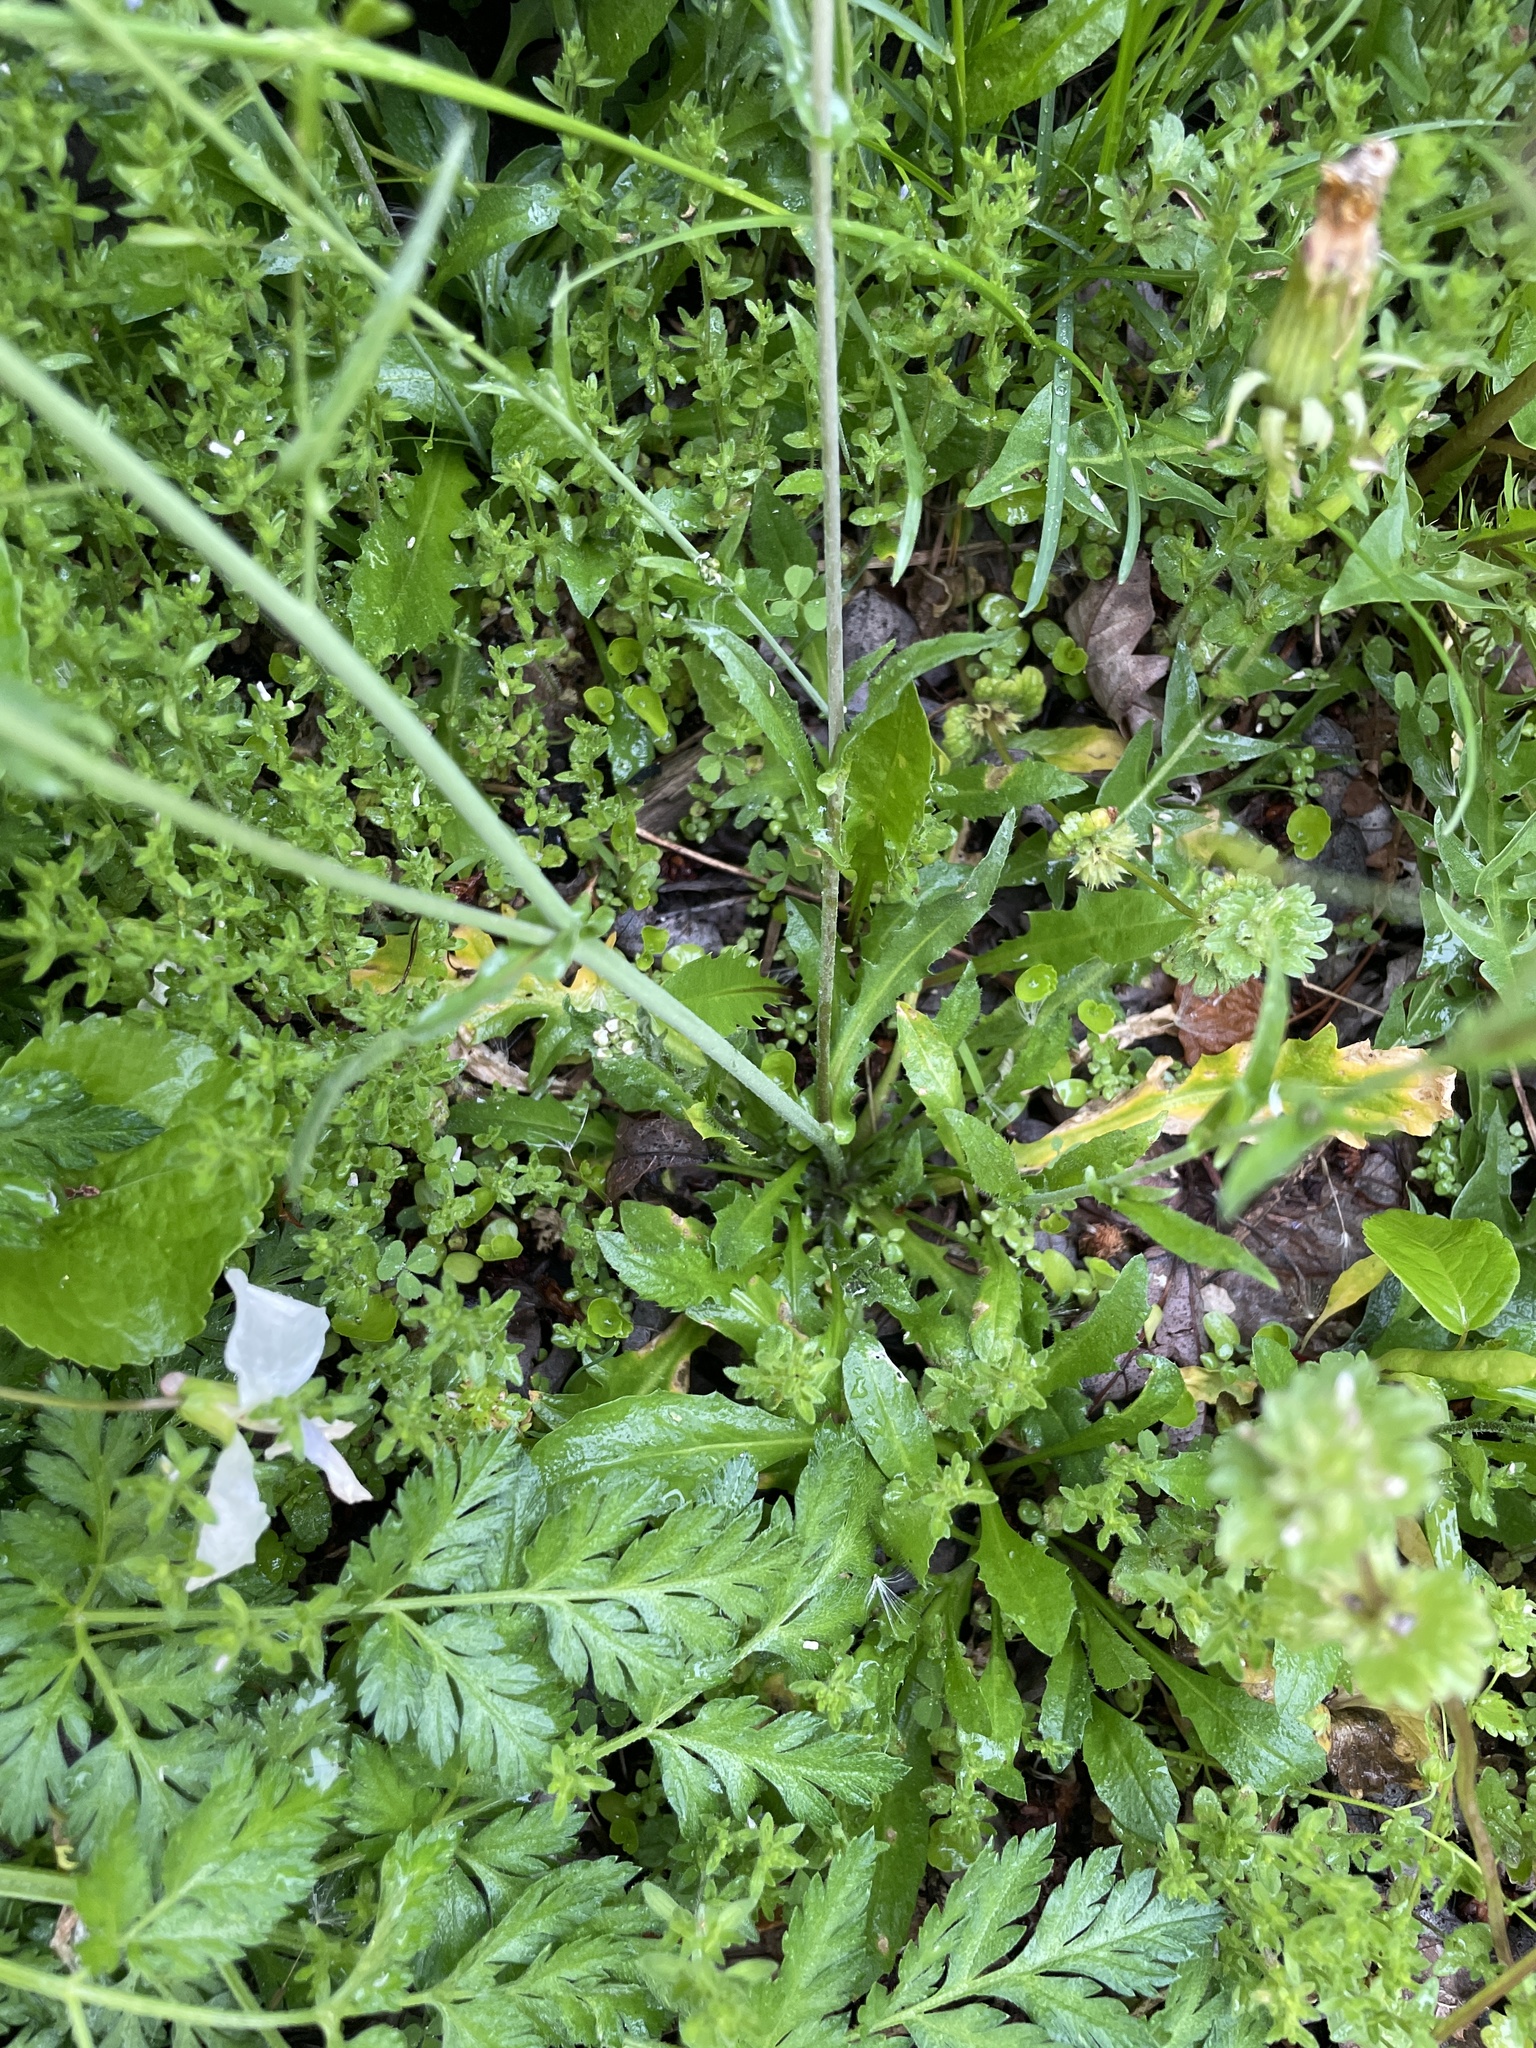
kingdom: Plantae
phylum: Tracheophyta
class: Magnoliopsida
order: Brassicales
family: Brassicaceae
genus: Capsella
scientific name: Capsella bursa-pastoris
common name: Shepherd's purse
